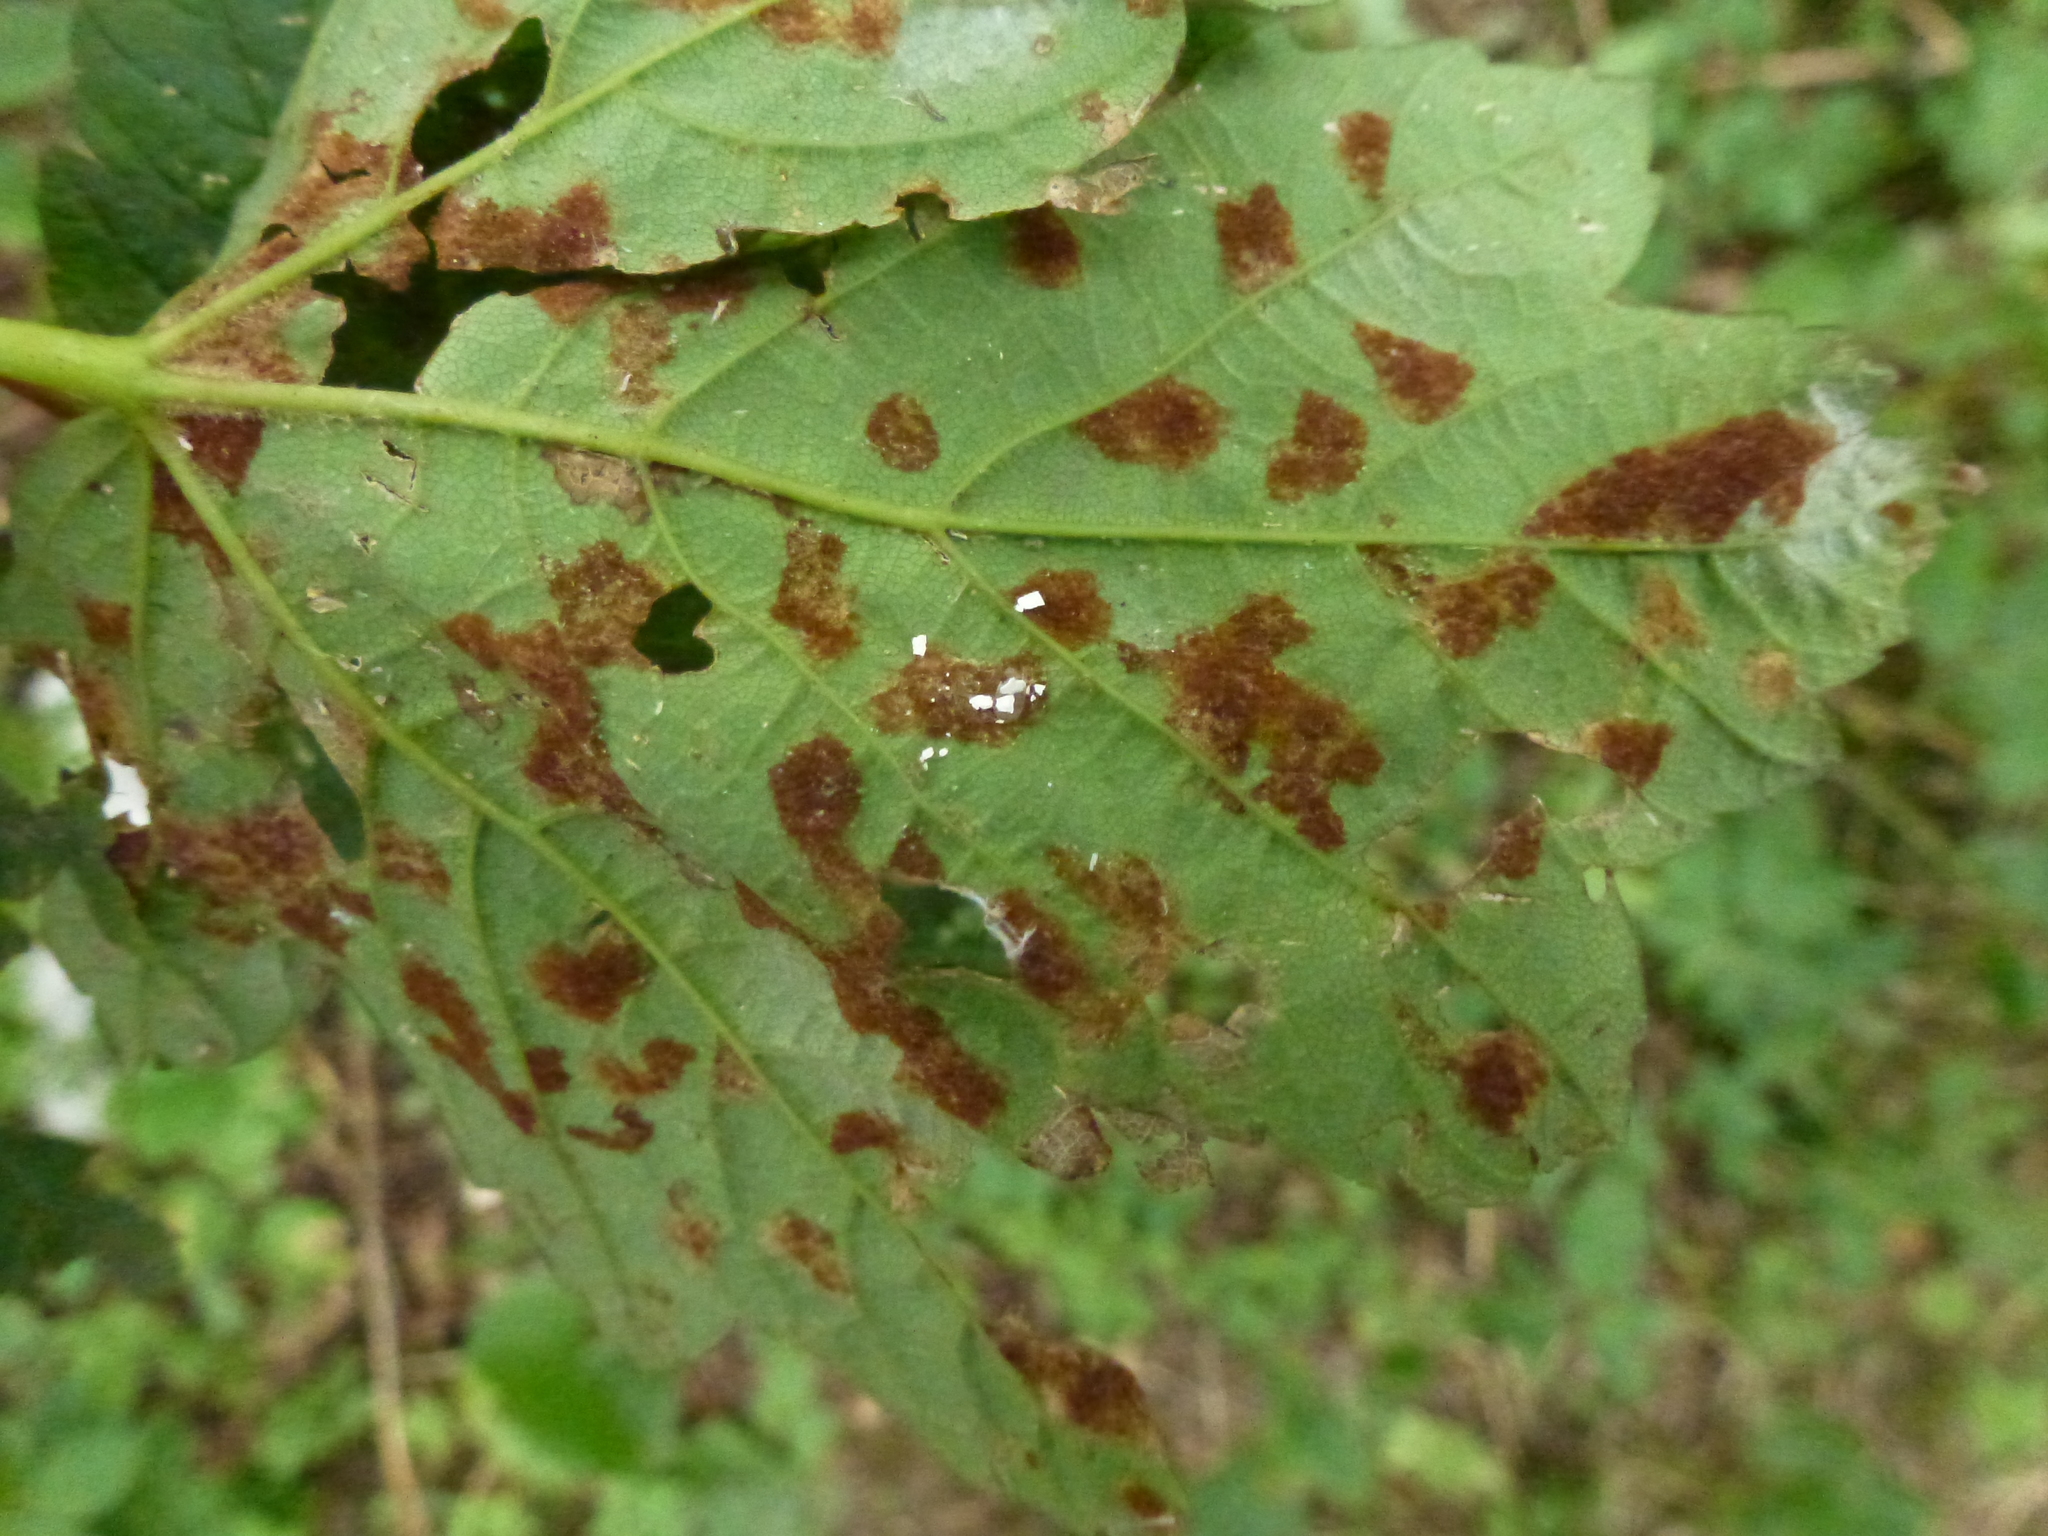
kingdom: Animalia
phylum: Arthropoda
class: Arachnida
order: Trombidiformes
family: Eriophyidae
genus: Aceria
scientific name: Aceria pseudoplatani
